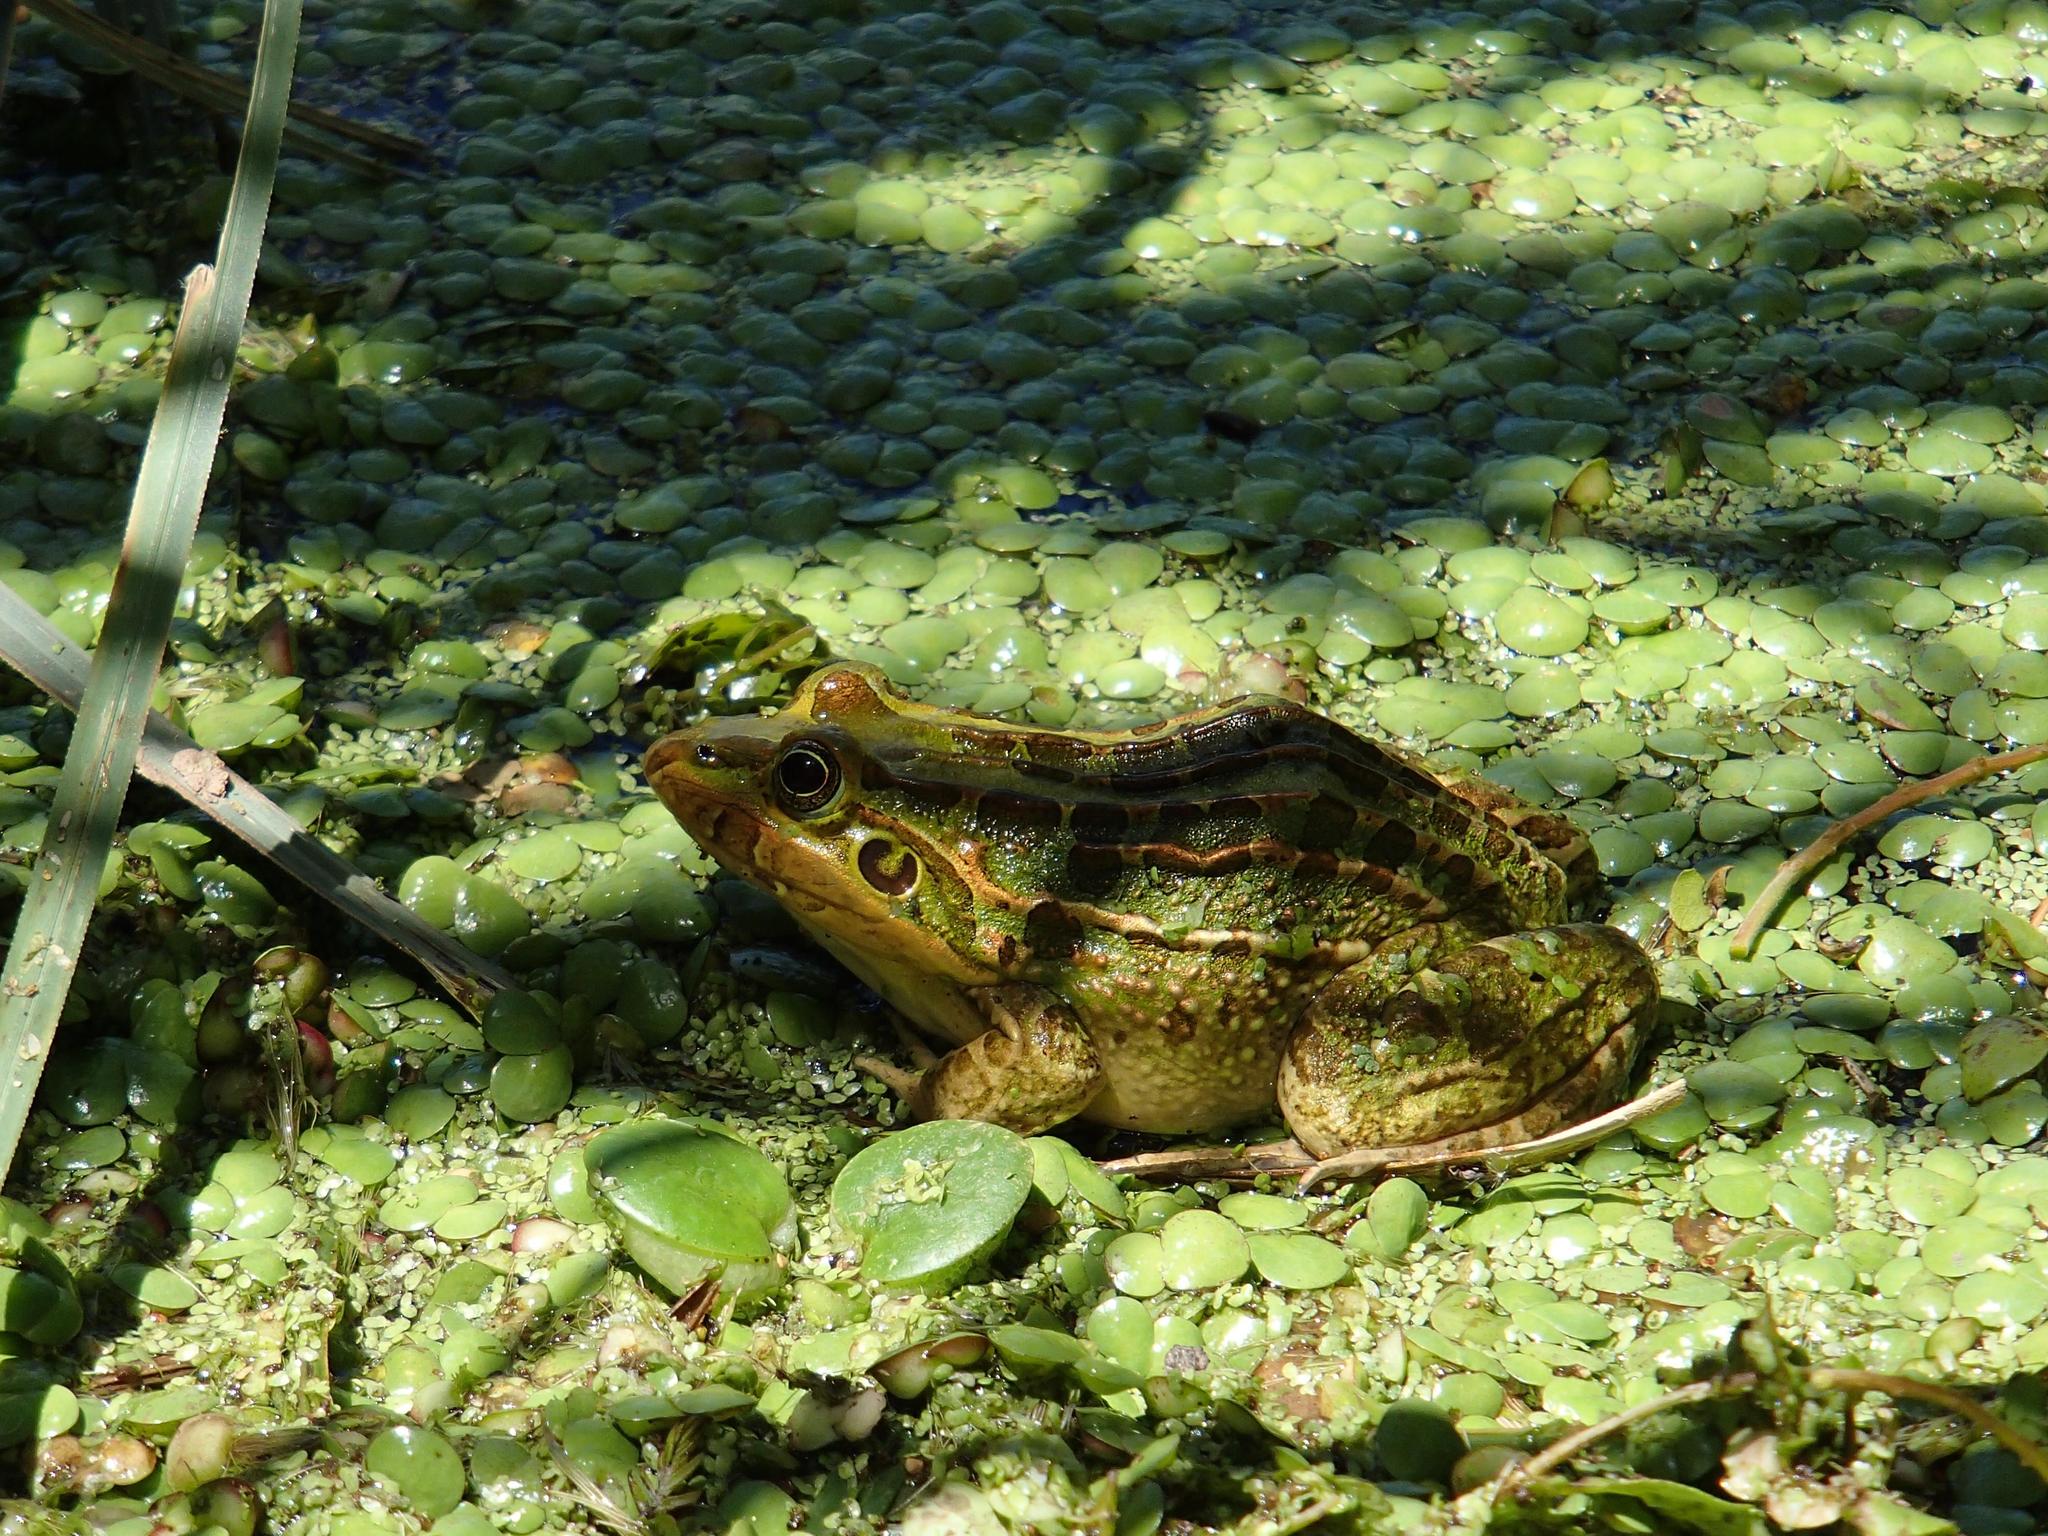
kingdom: Animalia
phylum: Chordata
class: Amphibia
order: Anura
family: Leptodactylidae
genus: Leptodactylus
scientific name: Leptodactylus luctator
